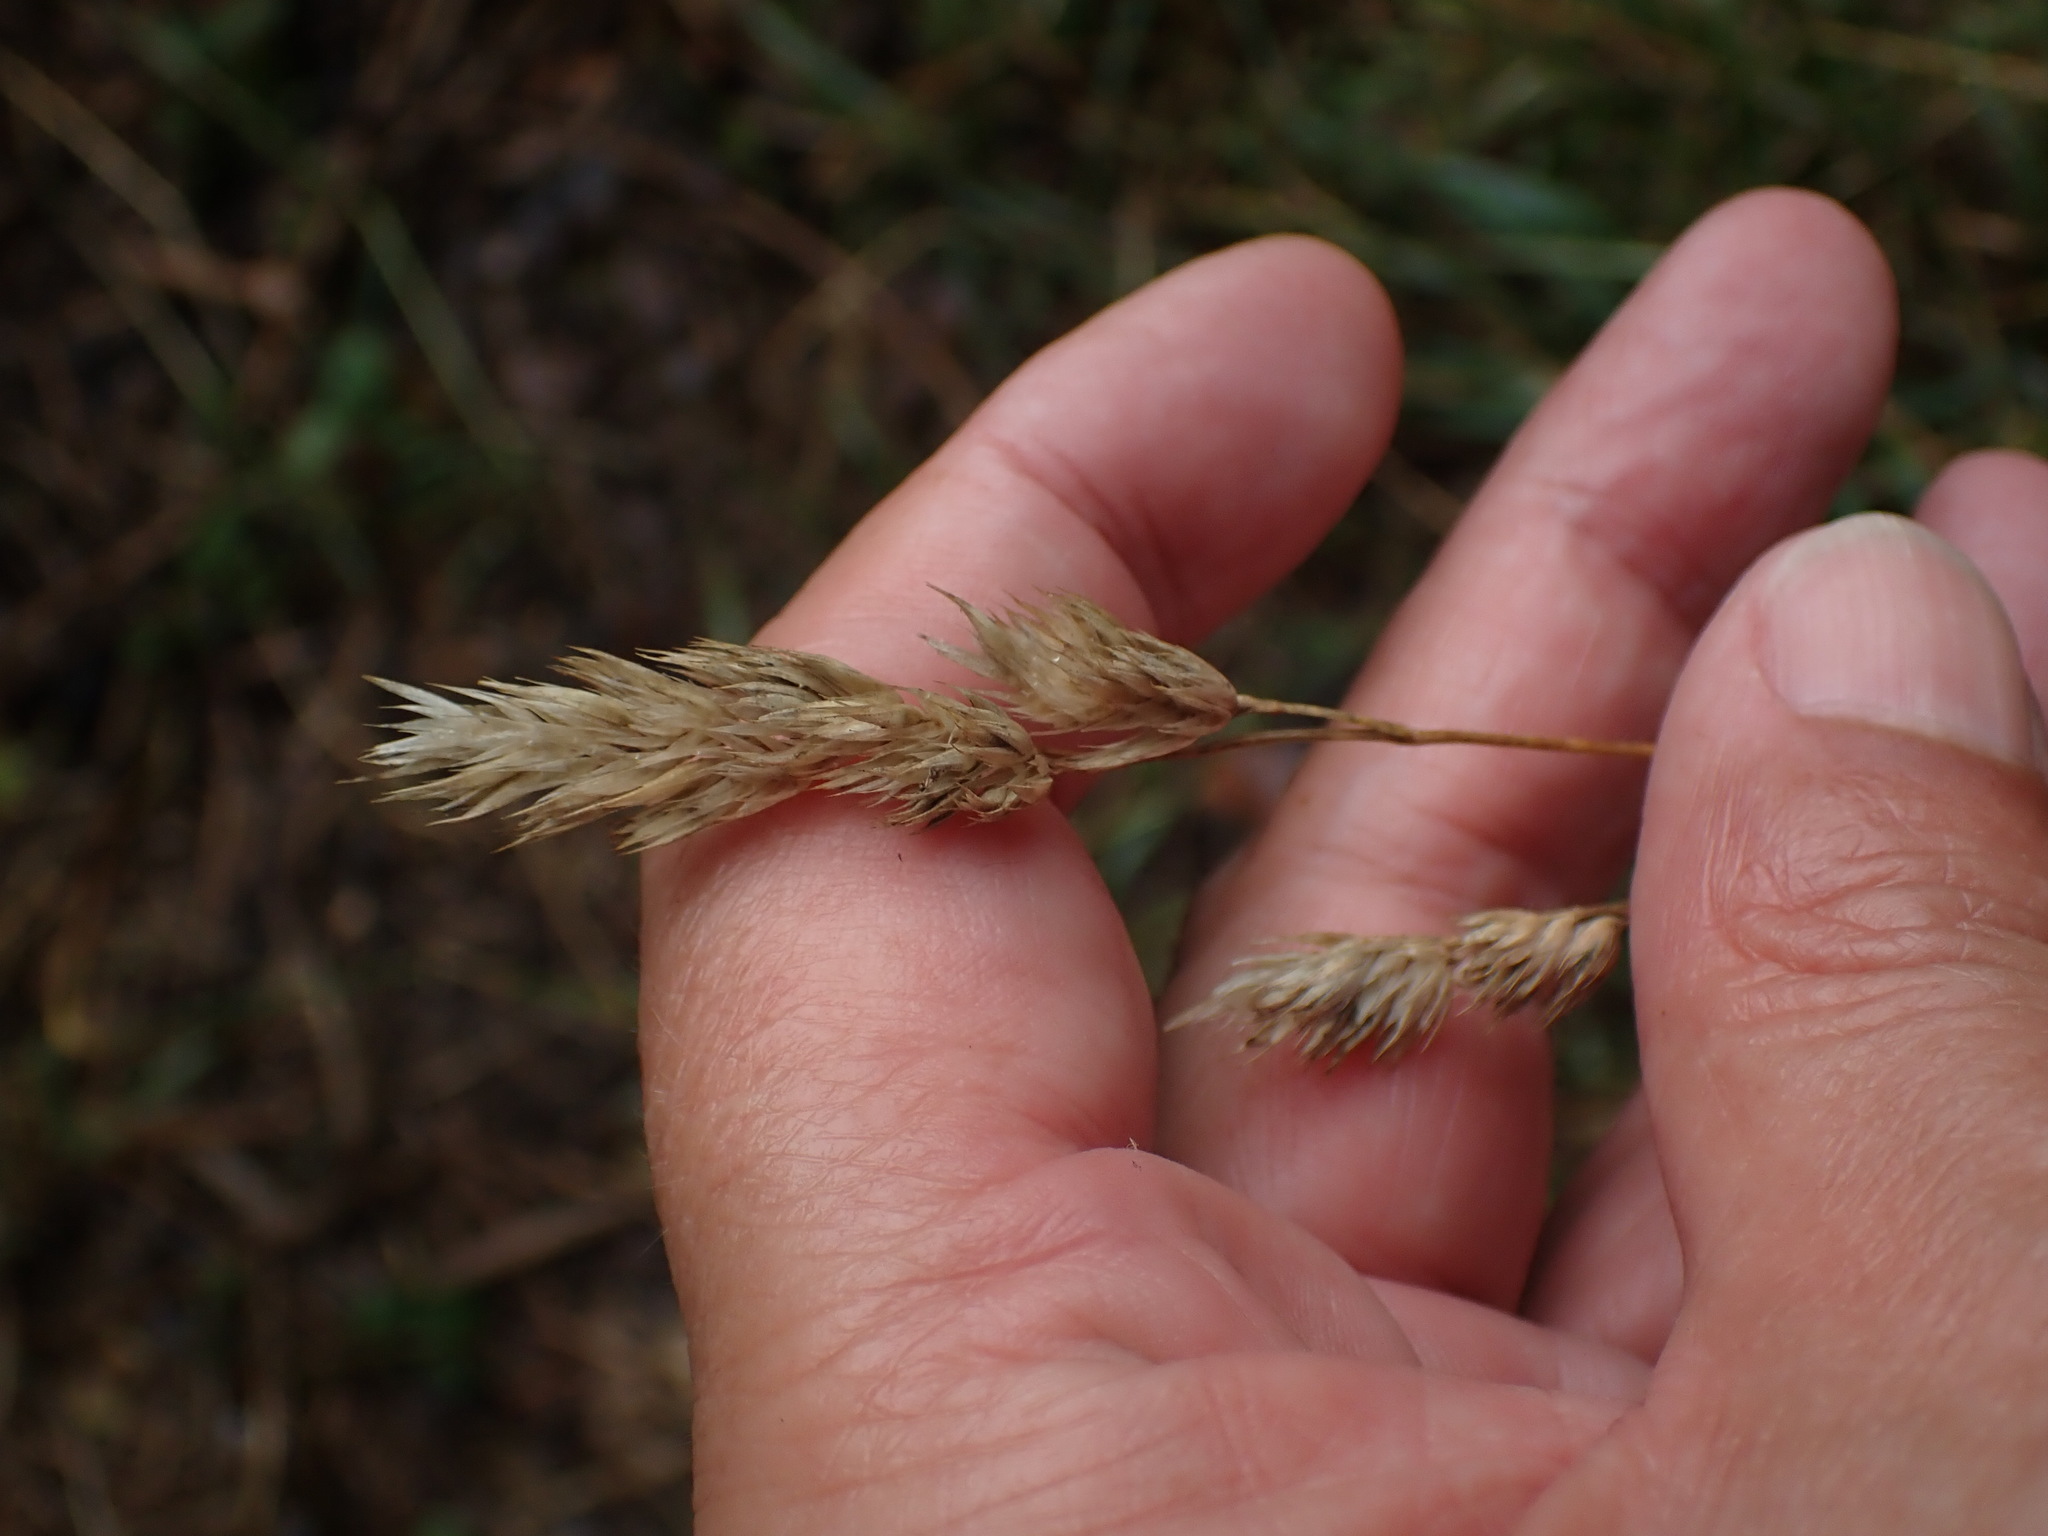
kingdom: Plantae
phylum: Tracheophyta
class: Liliopsida
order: Poales
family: Poaceae
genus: Dactylis
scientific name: Dactylis glomerata
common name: Orchardgrass
